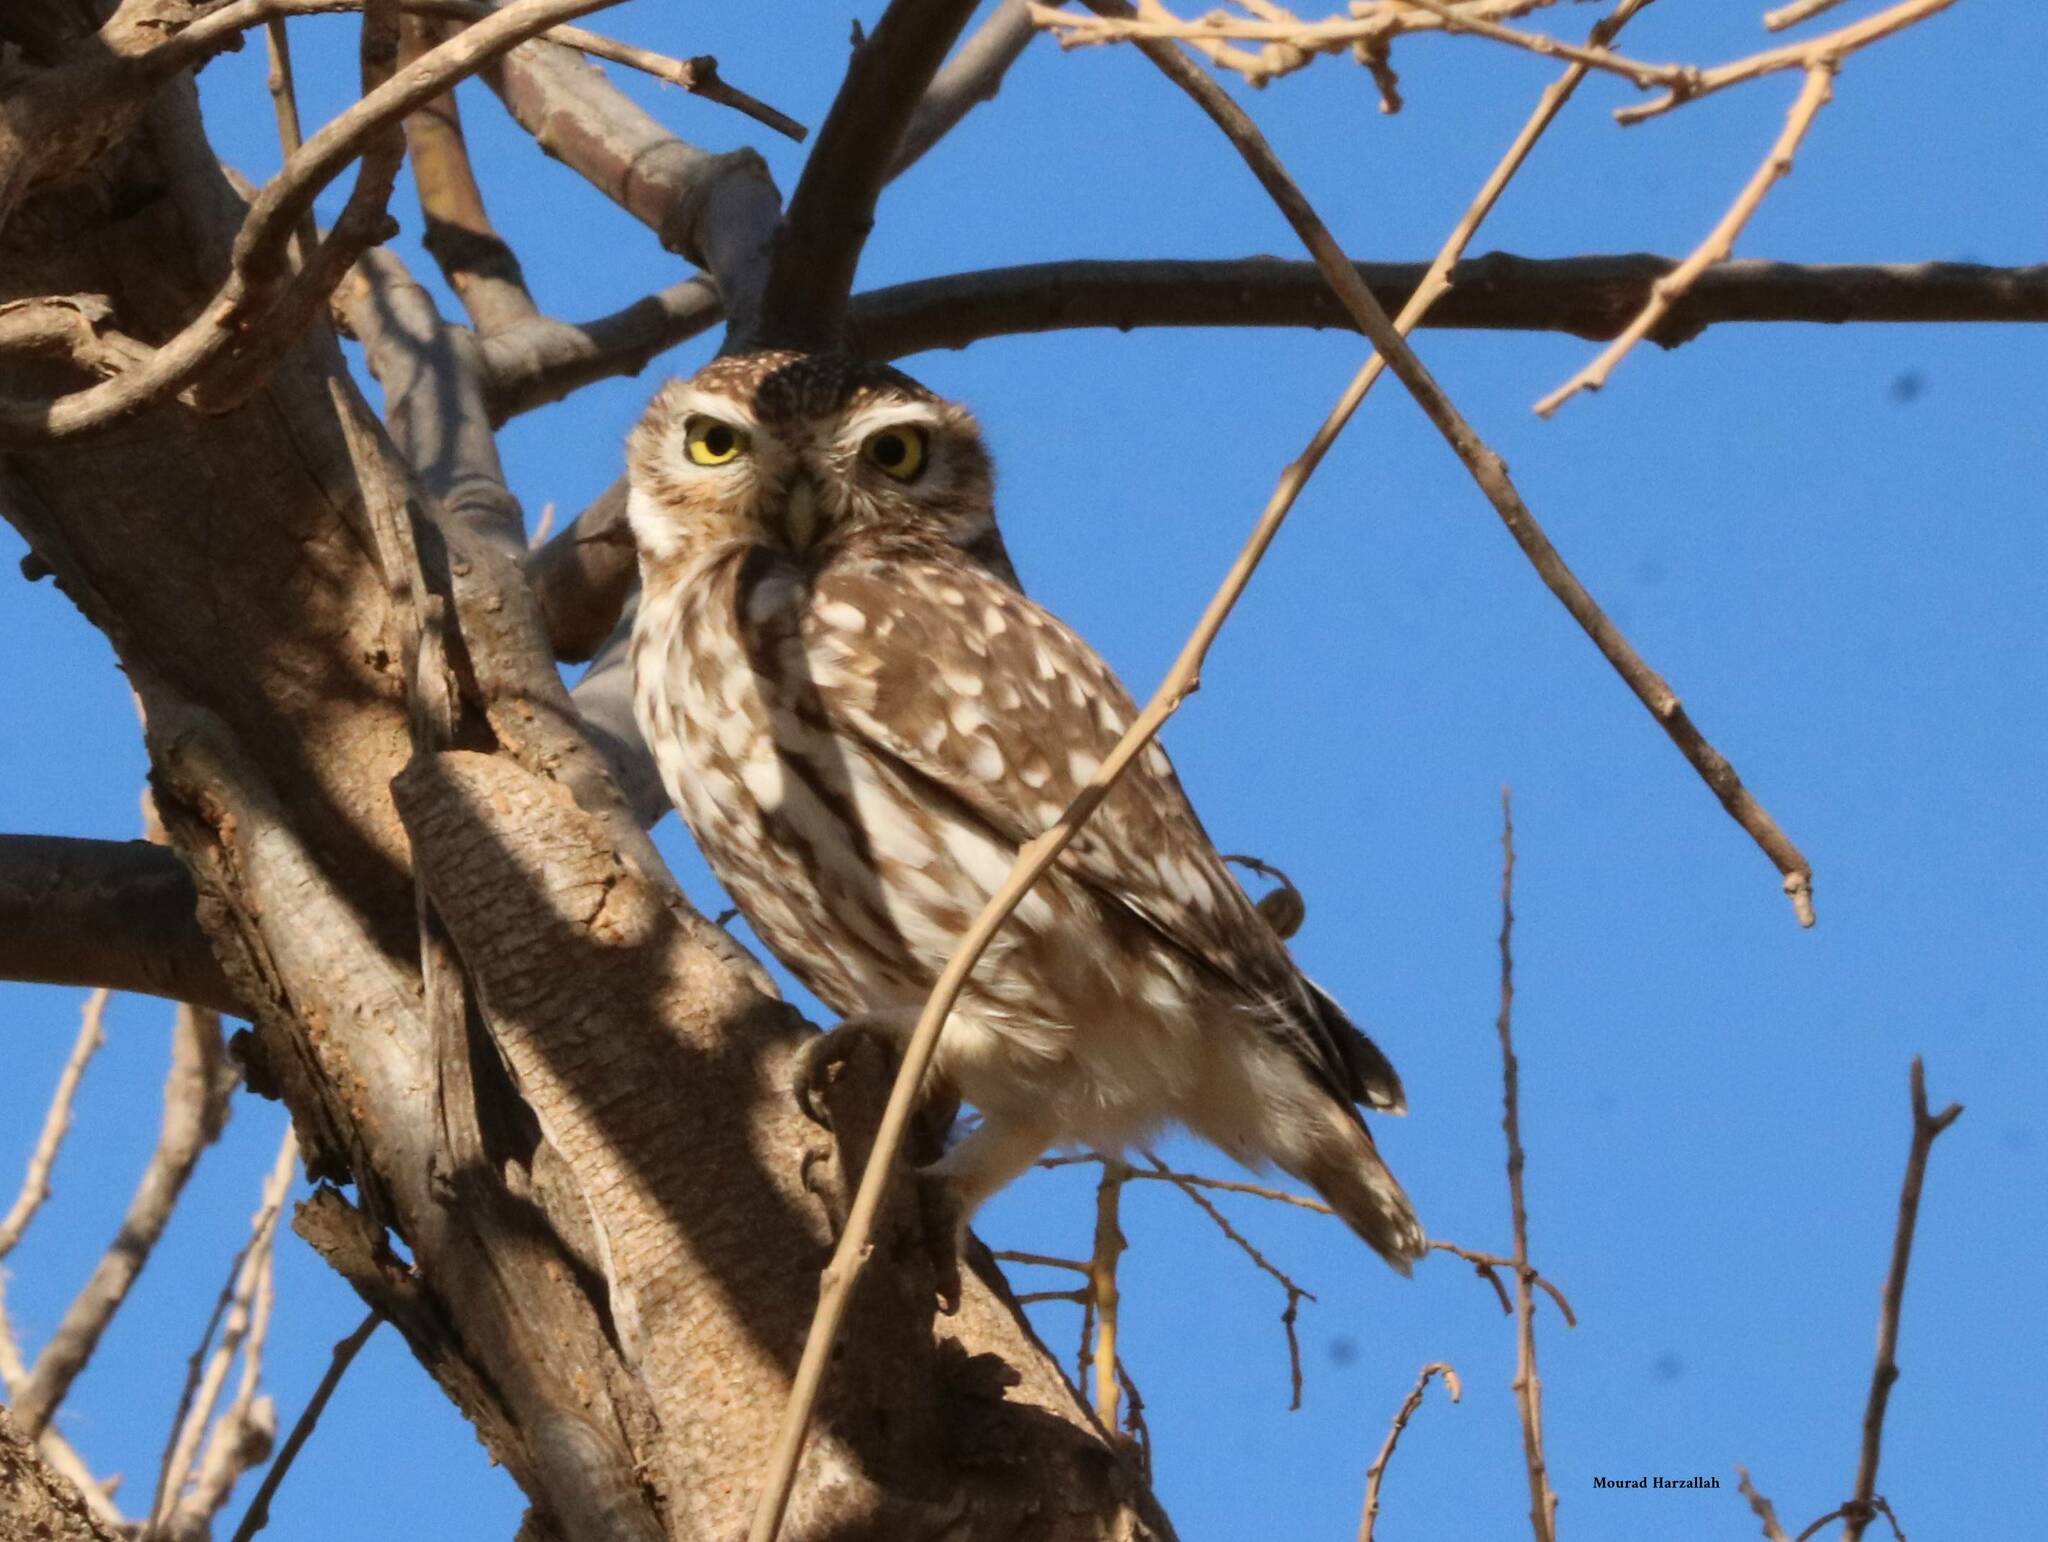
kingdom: Animalia
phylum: Chordata
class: Aves
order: Strigiformes
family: Strigidae
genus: Athene
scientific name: Athene noctua
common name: Little owl
